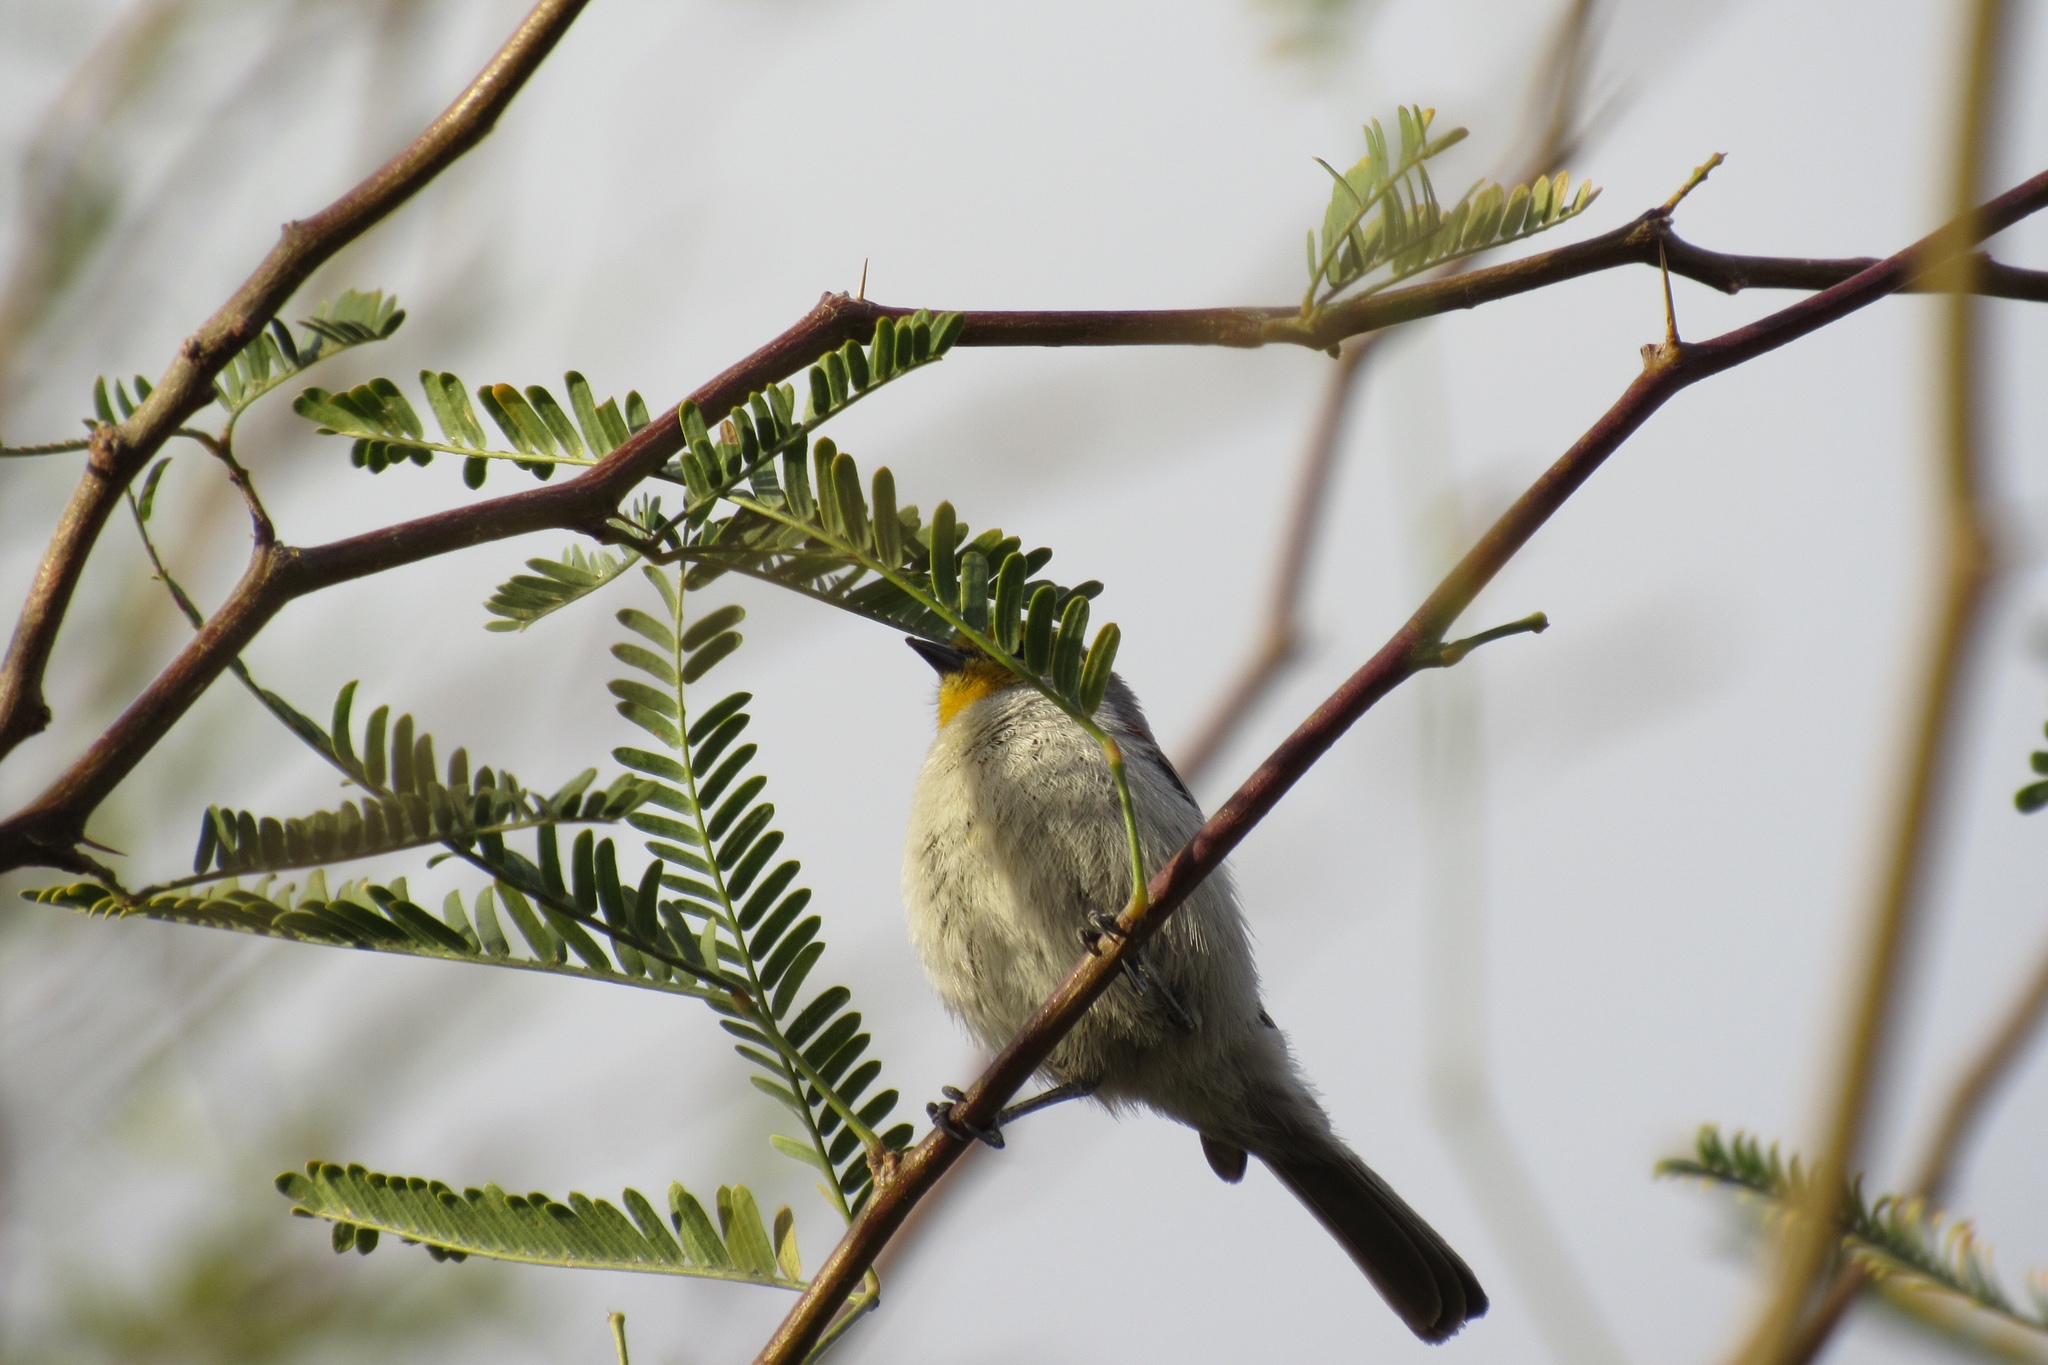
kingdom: Animalia
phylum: Chordata
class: Aves
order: Passeriformes
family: Remizidae
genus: Auriparus
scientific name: Auriparus flaviceps
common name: Verdin
